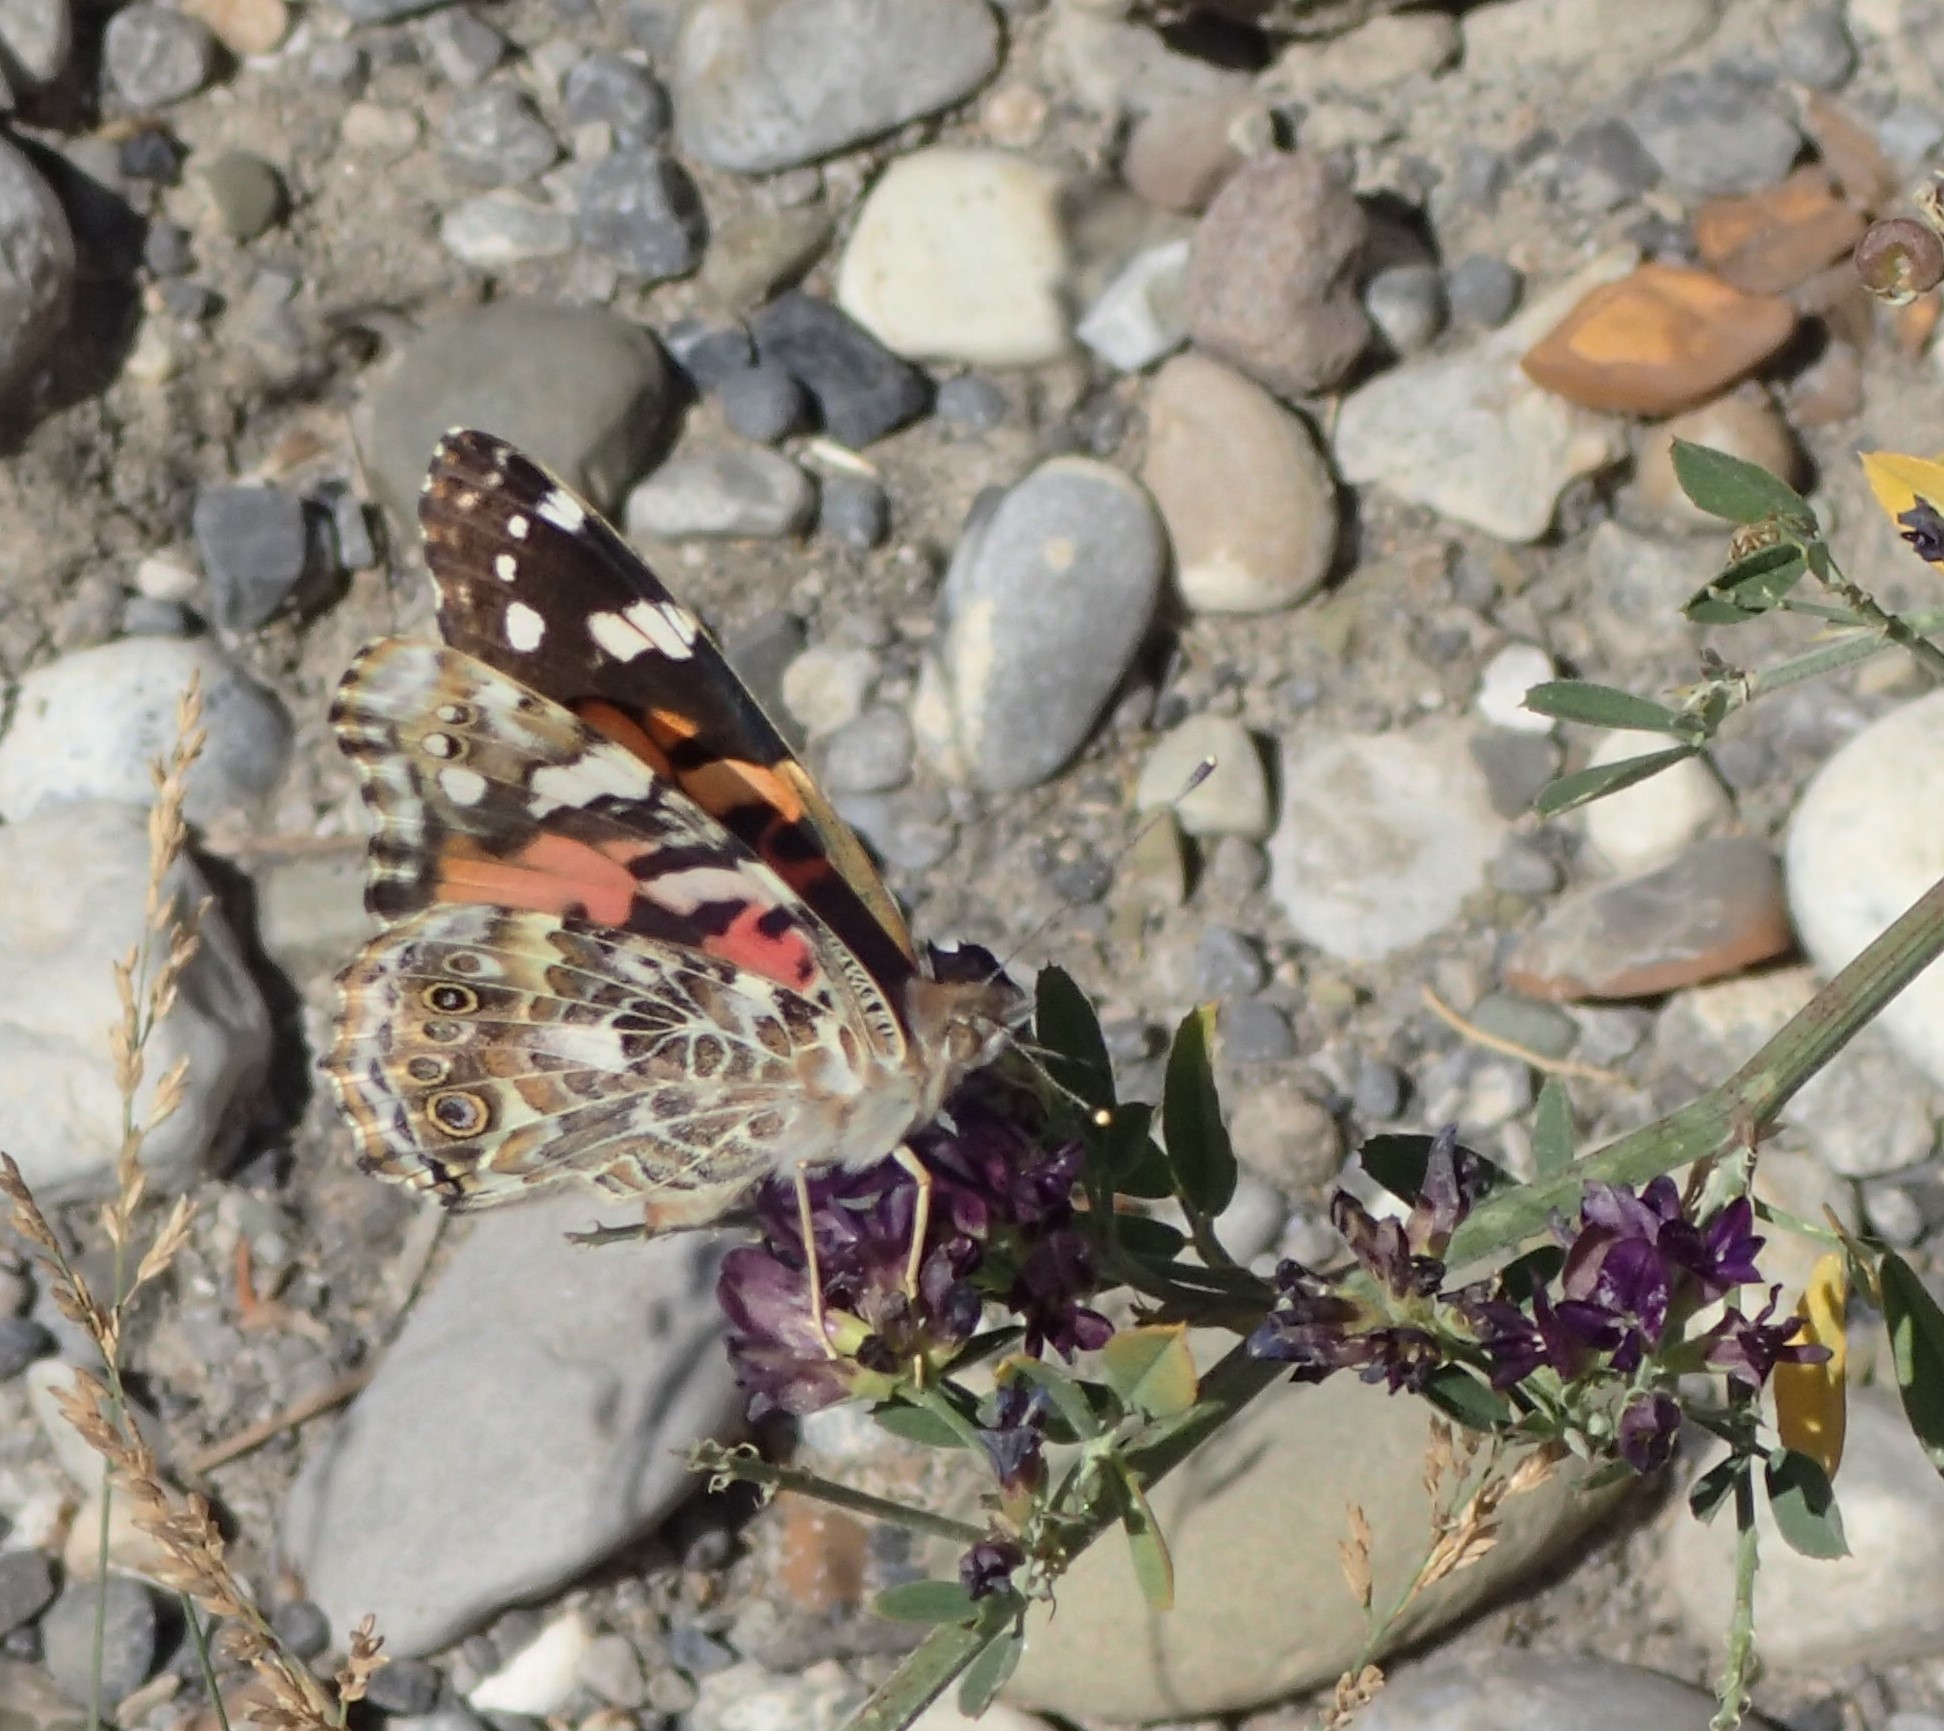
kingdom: Animalia
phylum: Arthropoda
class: Insecta
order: Lepidoptera
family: Nymphalidae
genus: Vanessa
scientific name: Vanessa cardui
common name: Painted lady
